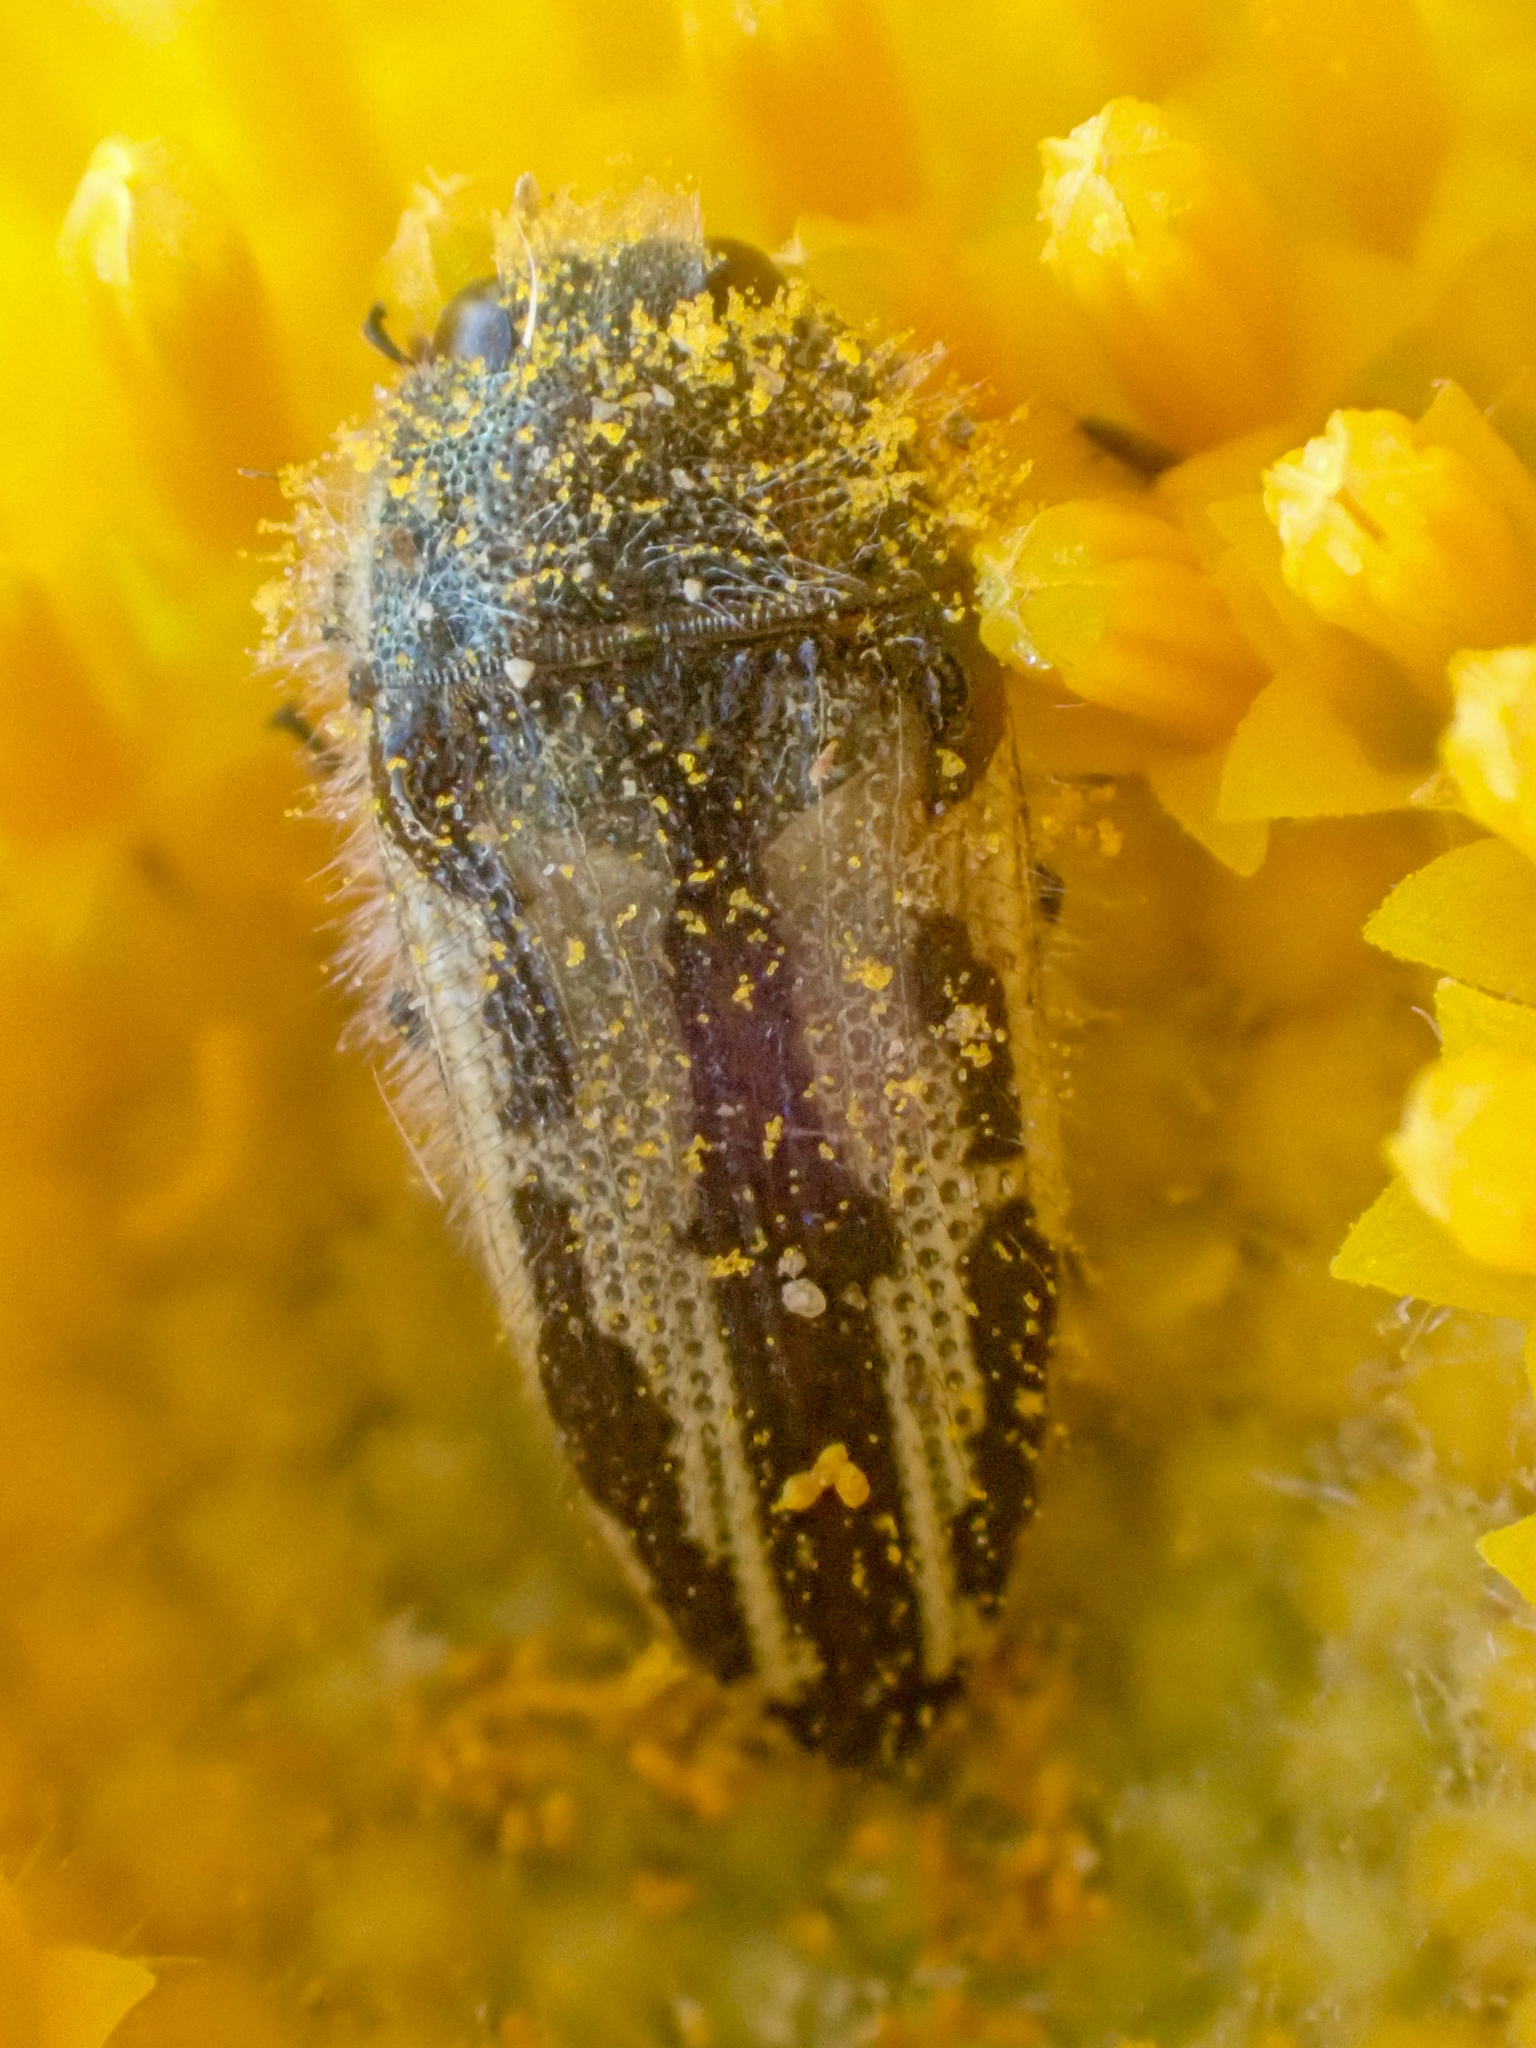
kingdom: Animalia
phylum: Arthropoda
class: Insecta
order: Coleoptera
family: Buprestidae
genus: Acmaeodera
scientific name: Acmaeodera latiflava
